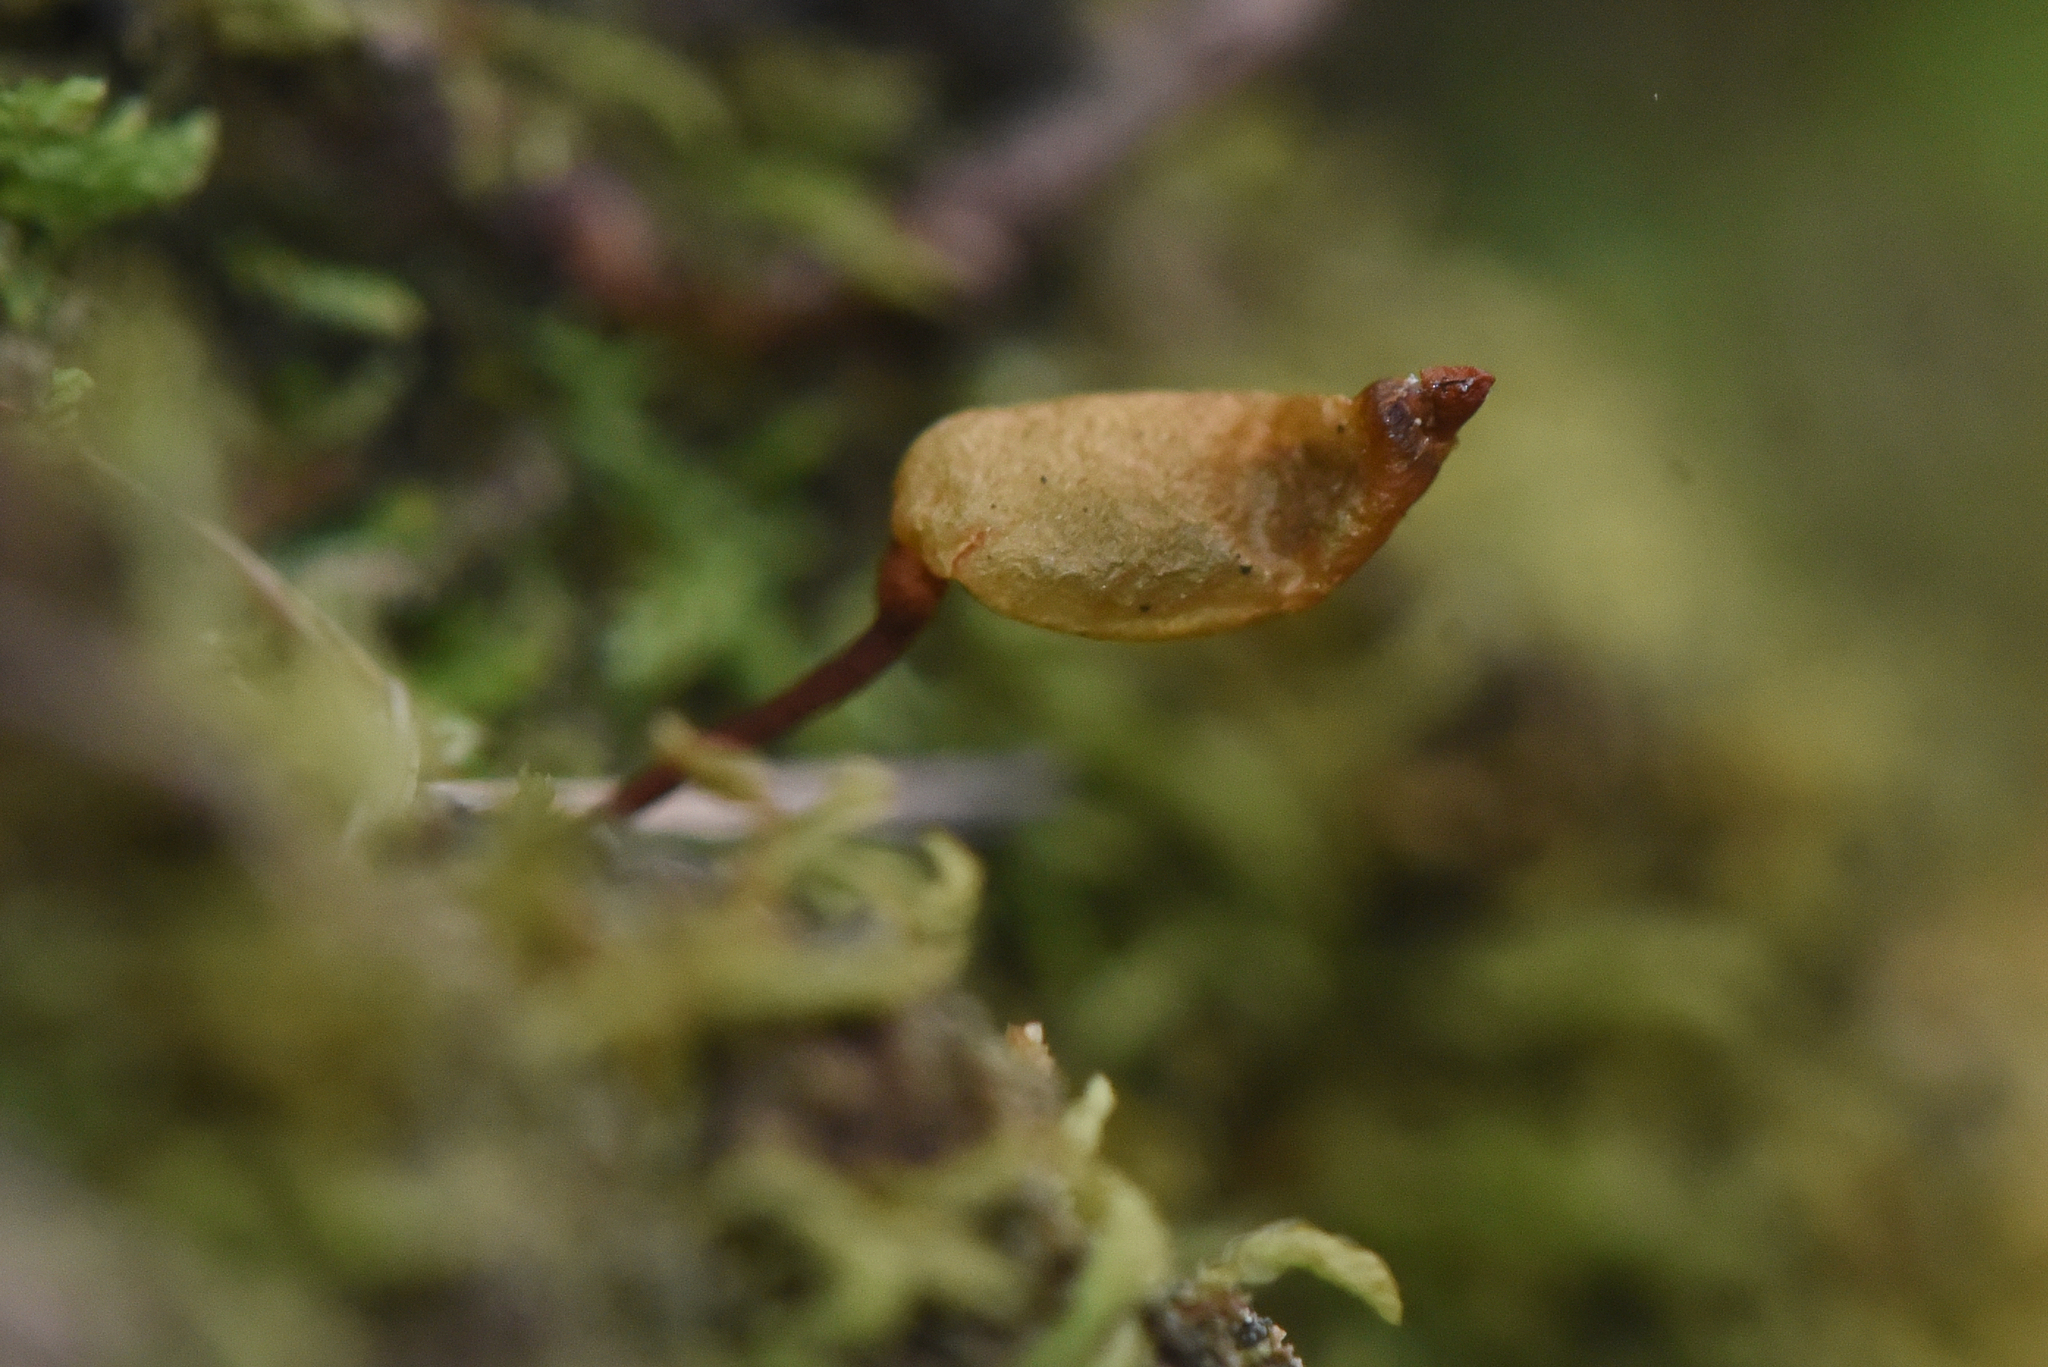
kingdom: Plantae
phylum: Bryophyta
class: Bryopsida
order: Buxbaumiales
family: Buxbaumiaceae
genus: Buxbaumia
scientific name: Buxbaumia aphylla
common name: Brown shield-moss
